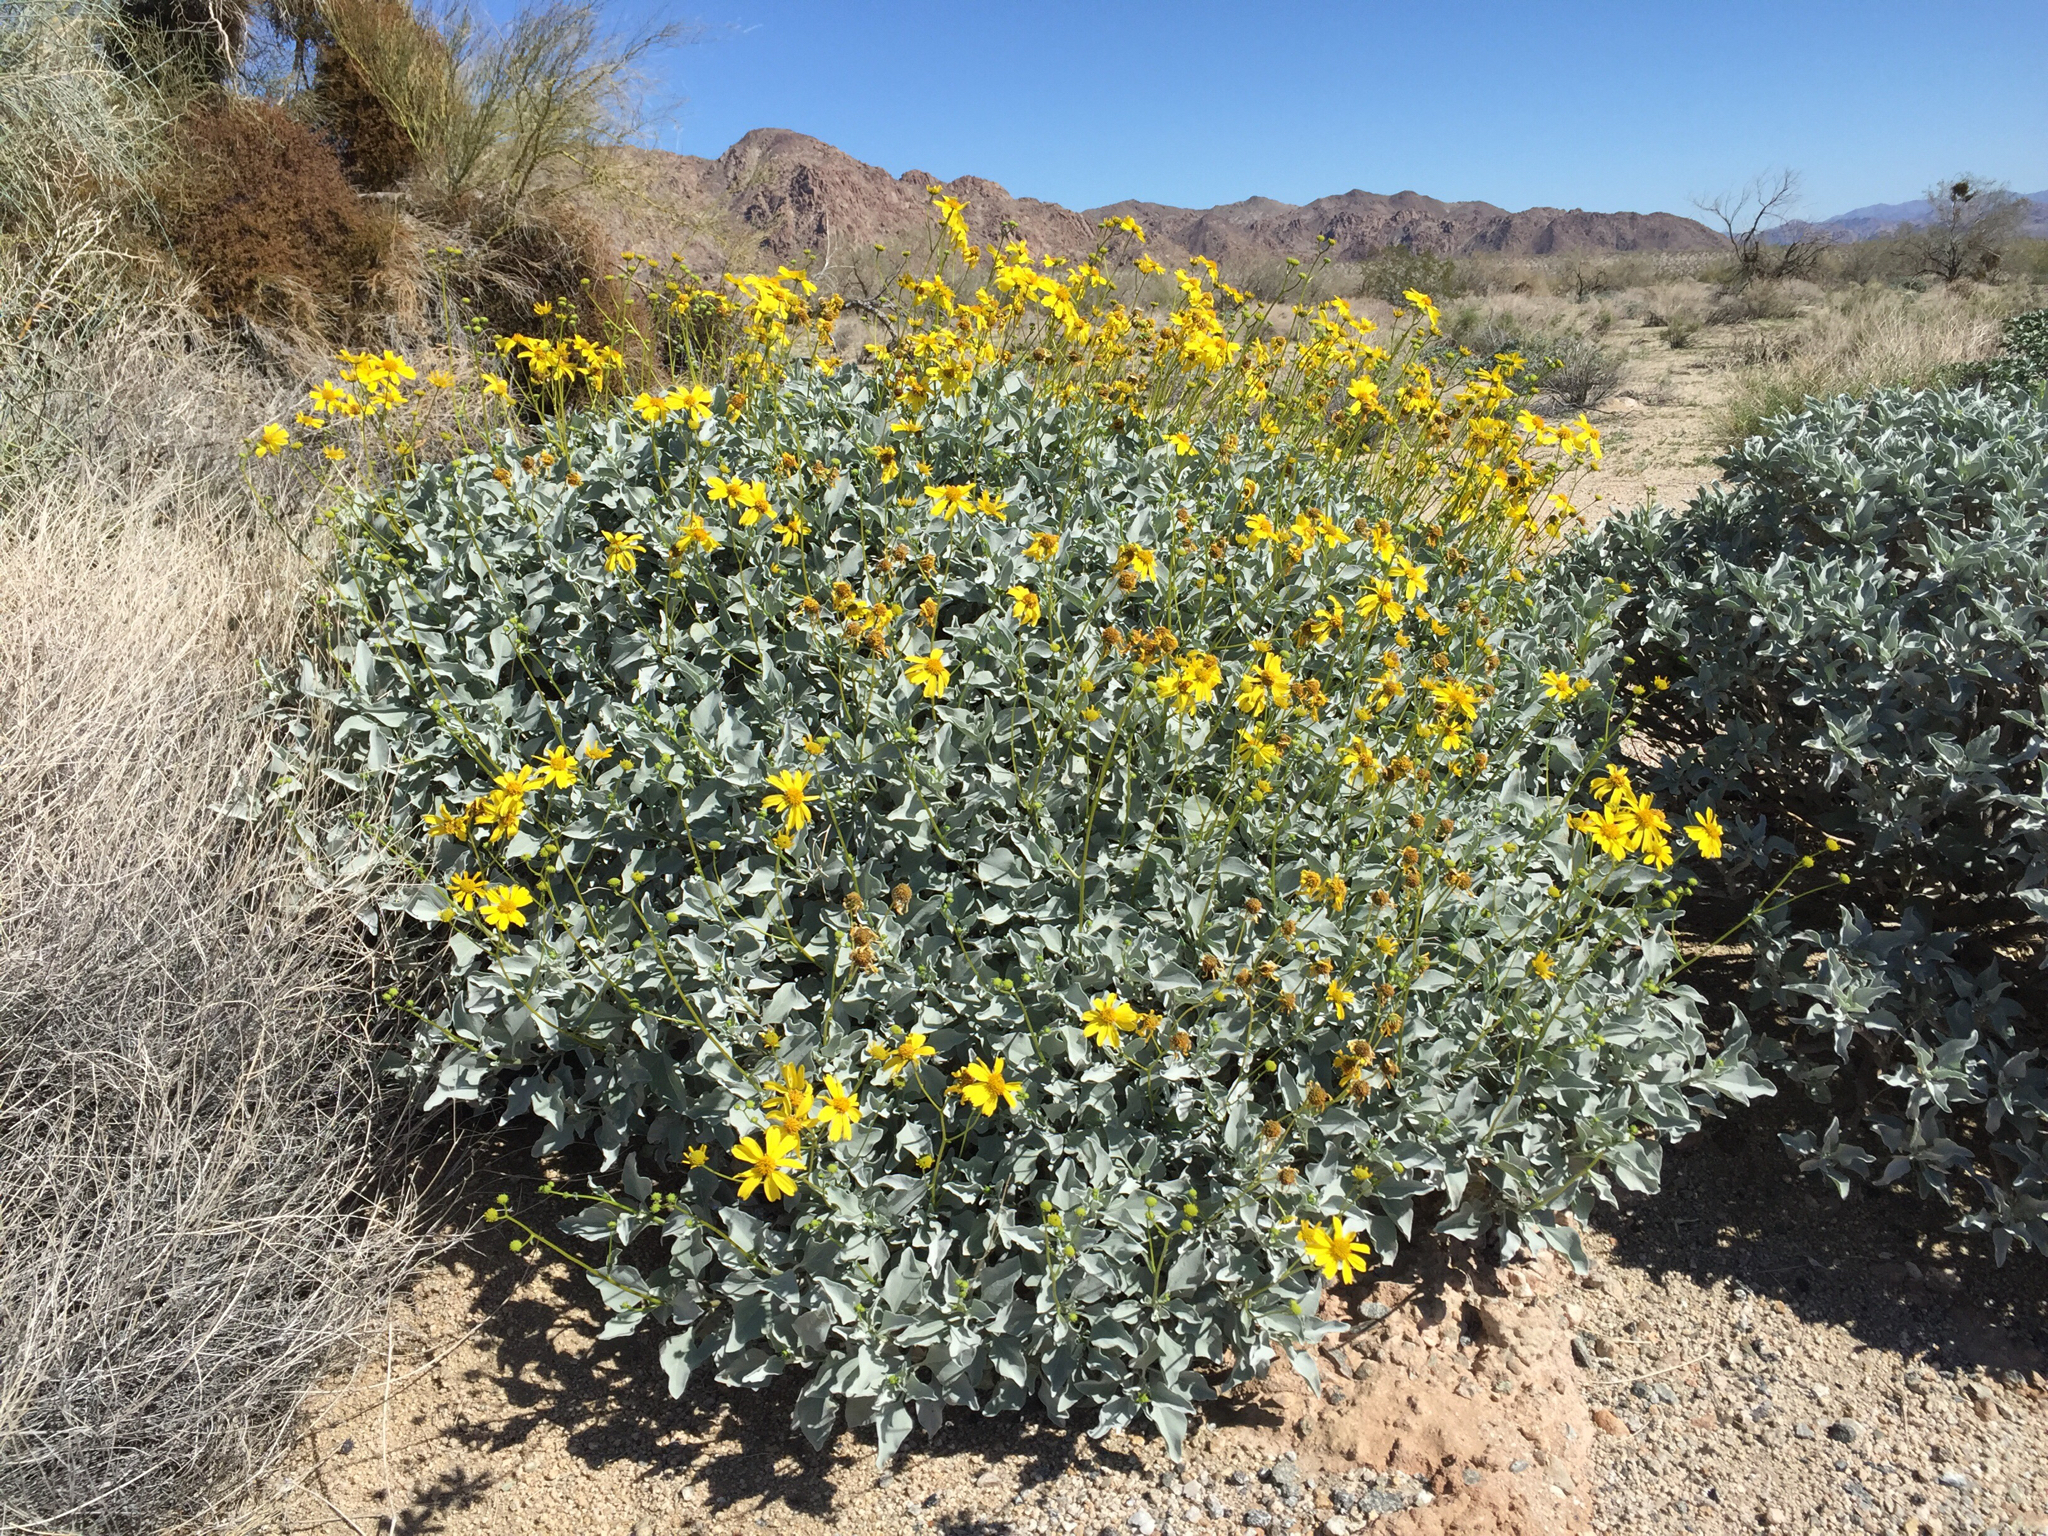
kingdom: Plantae
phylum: Tracheophyta
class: Magnoliopsida
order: Asterales
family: Asteraceae
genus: Encelia
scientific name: Encelia farinosa
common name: Brittlebush
